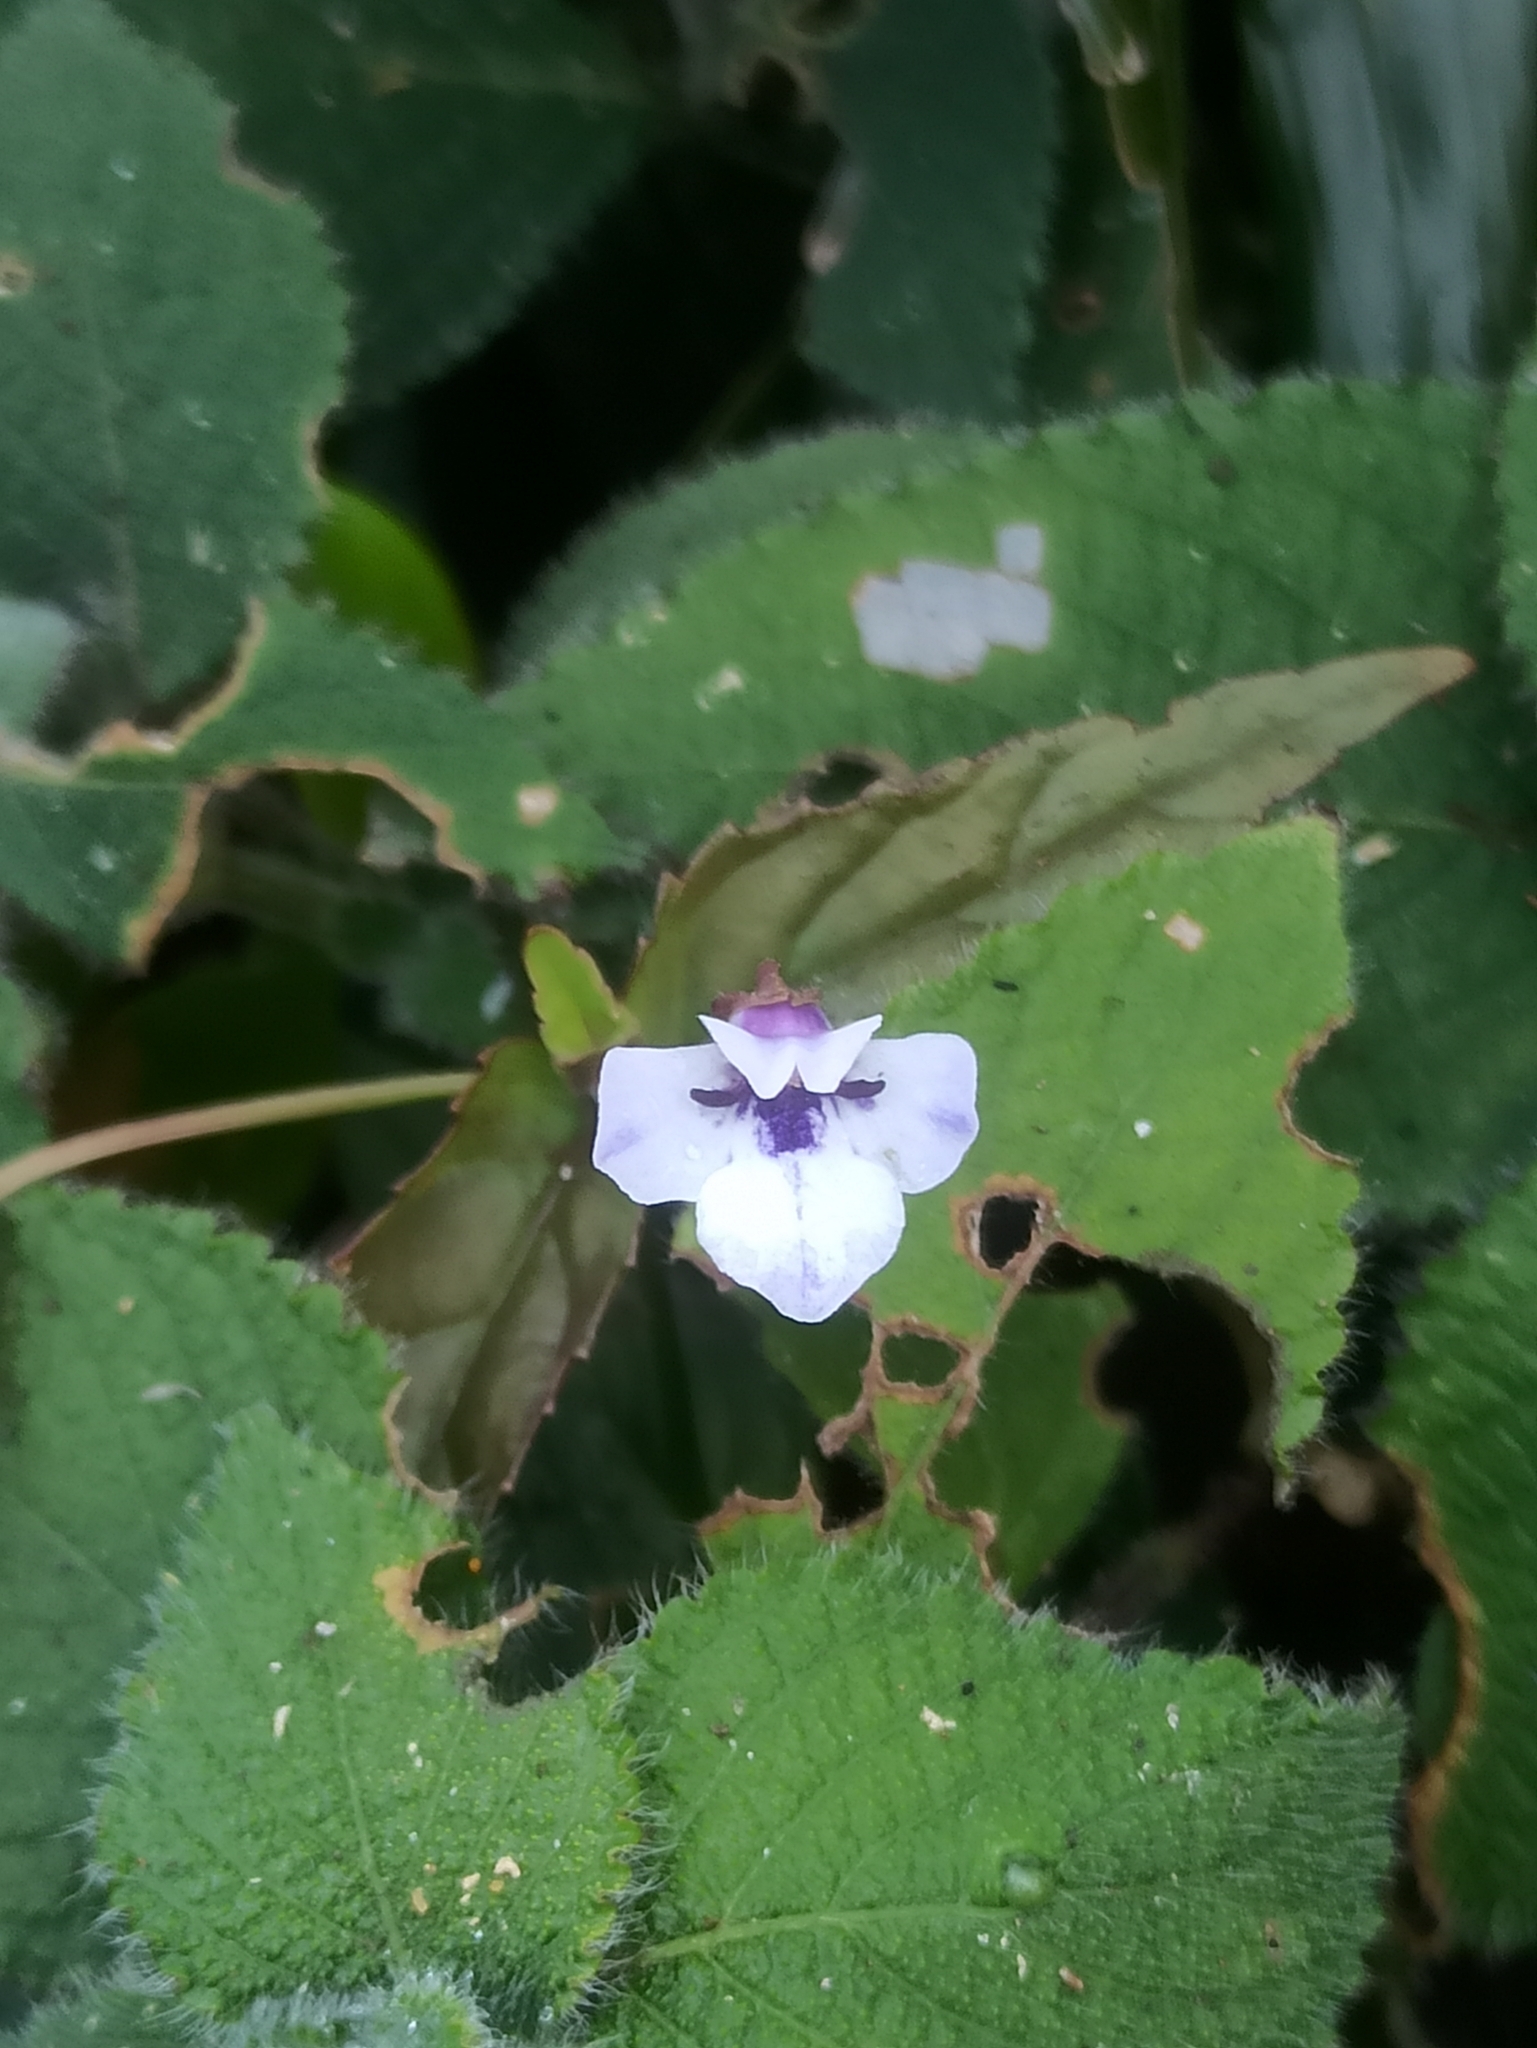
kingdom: Plantae
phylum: Tracheophyta
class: Magnoliopsida
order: Lamiales
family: Linderniaceae
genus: Torenia
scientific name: Torenia courtallensis
